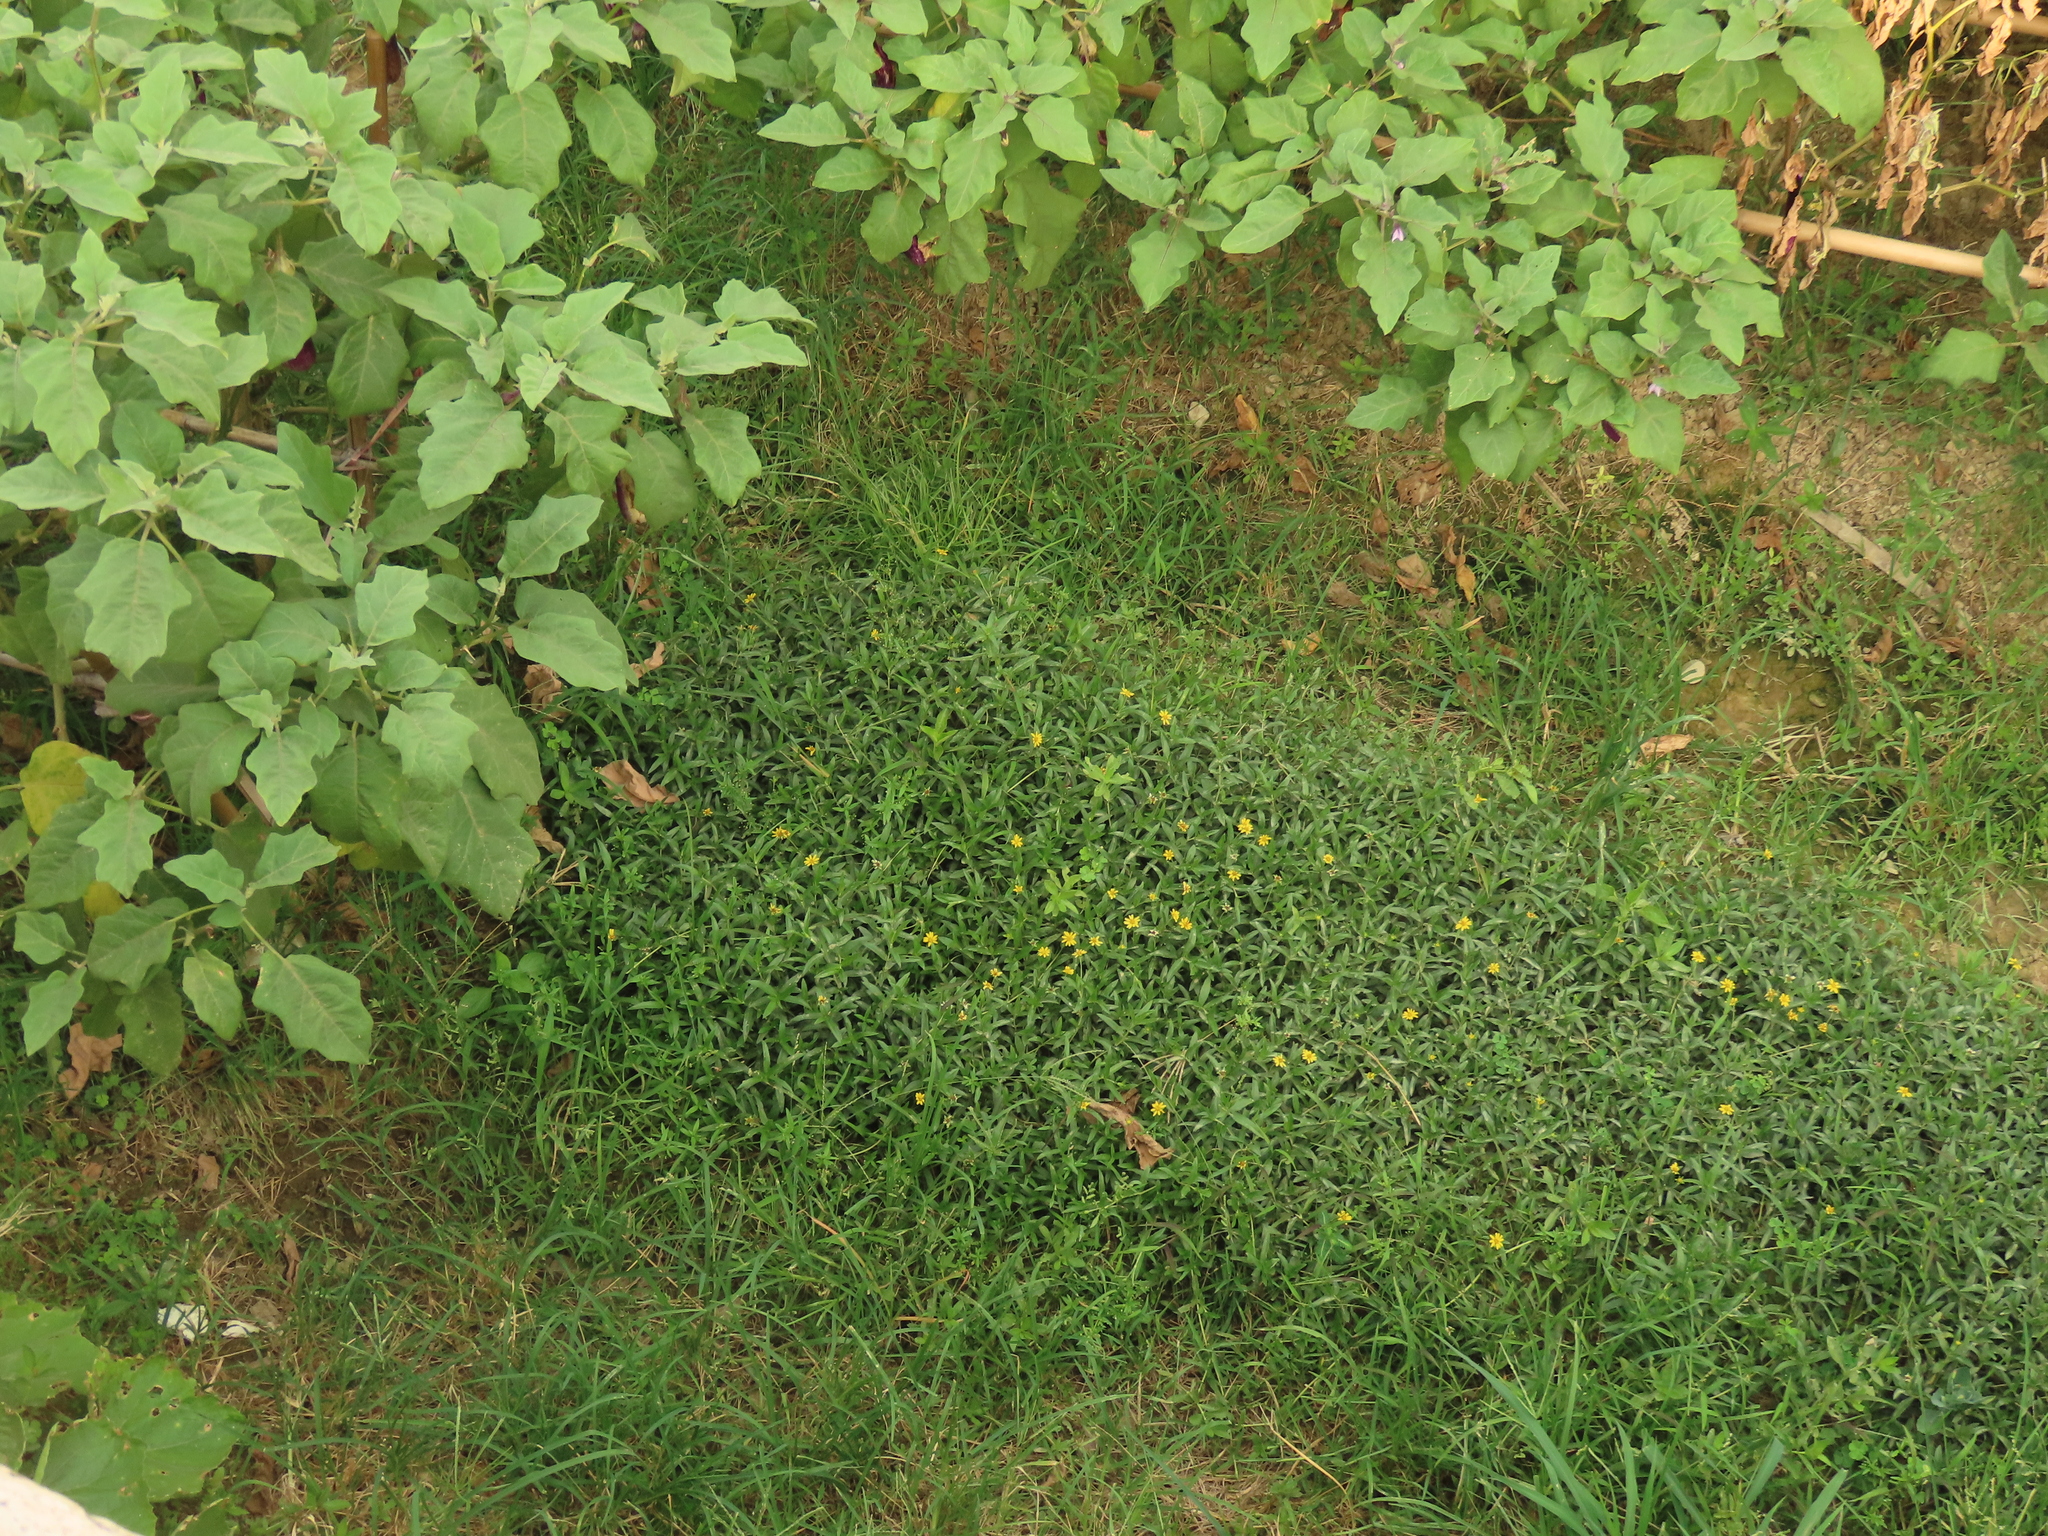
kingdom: Plantae
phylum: Tracheophyta
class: Magnoliopsida
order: Asterales
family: Asteraceae
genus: Sphagneticola
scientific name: Sphagneticola calendulacea
